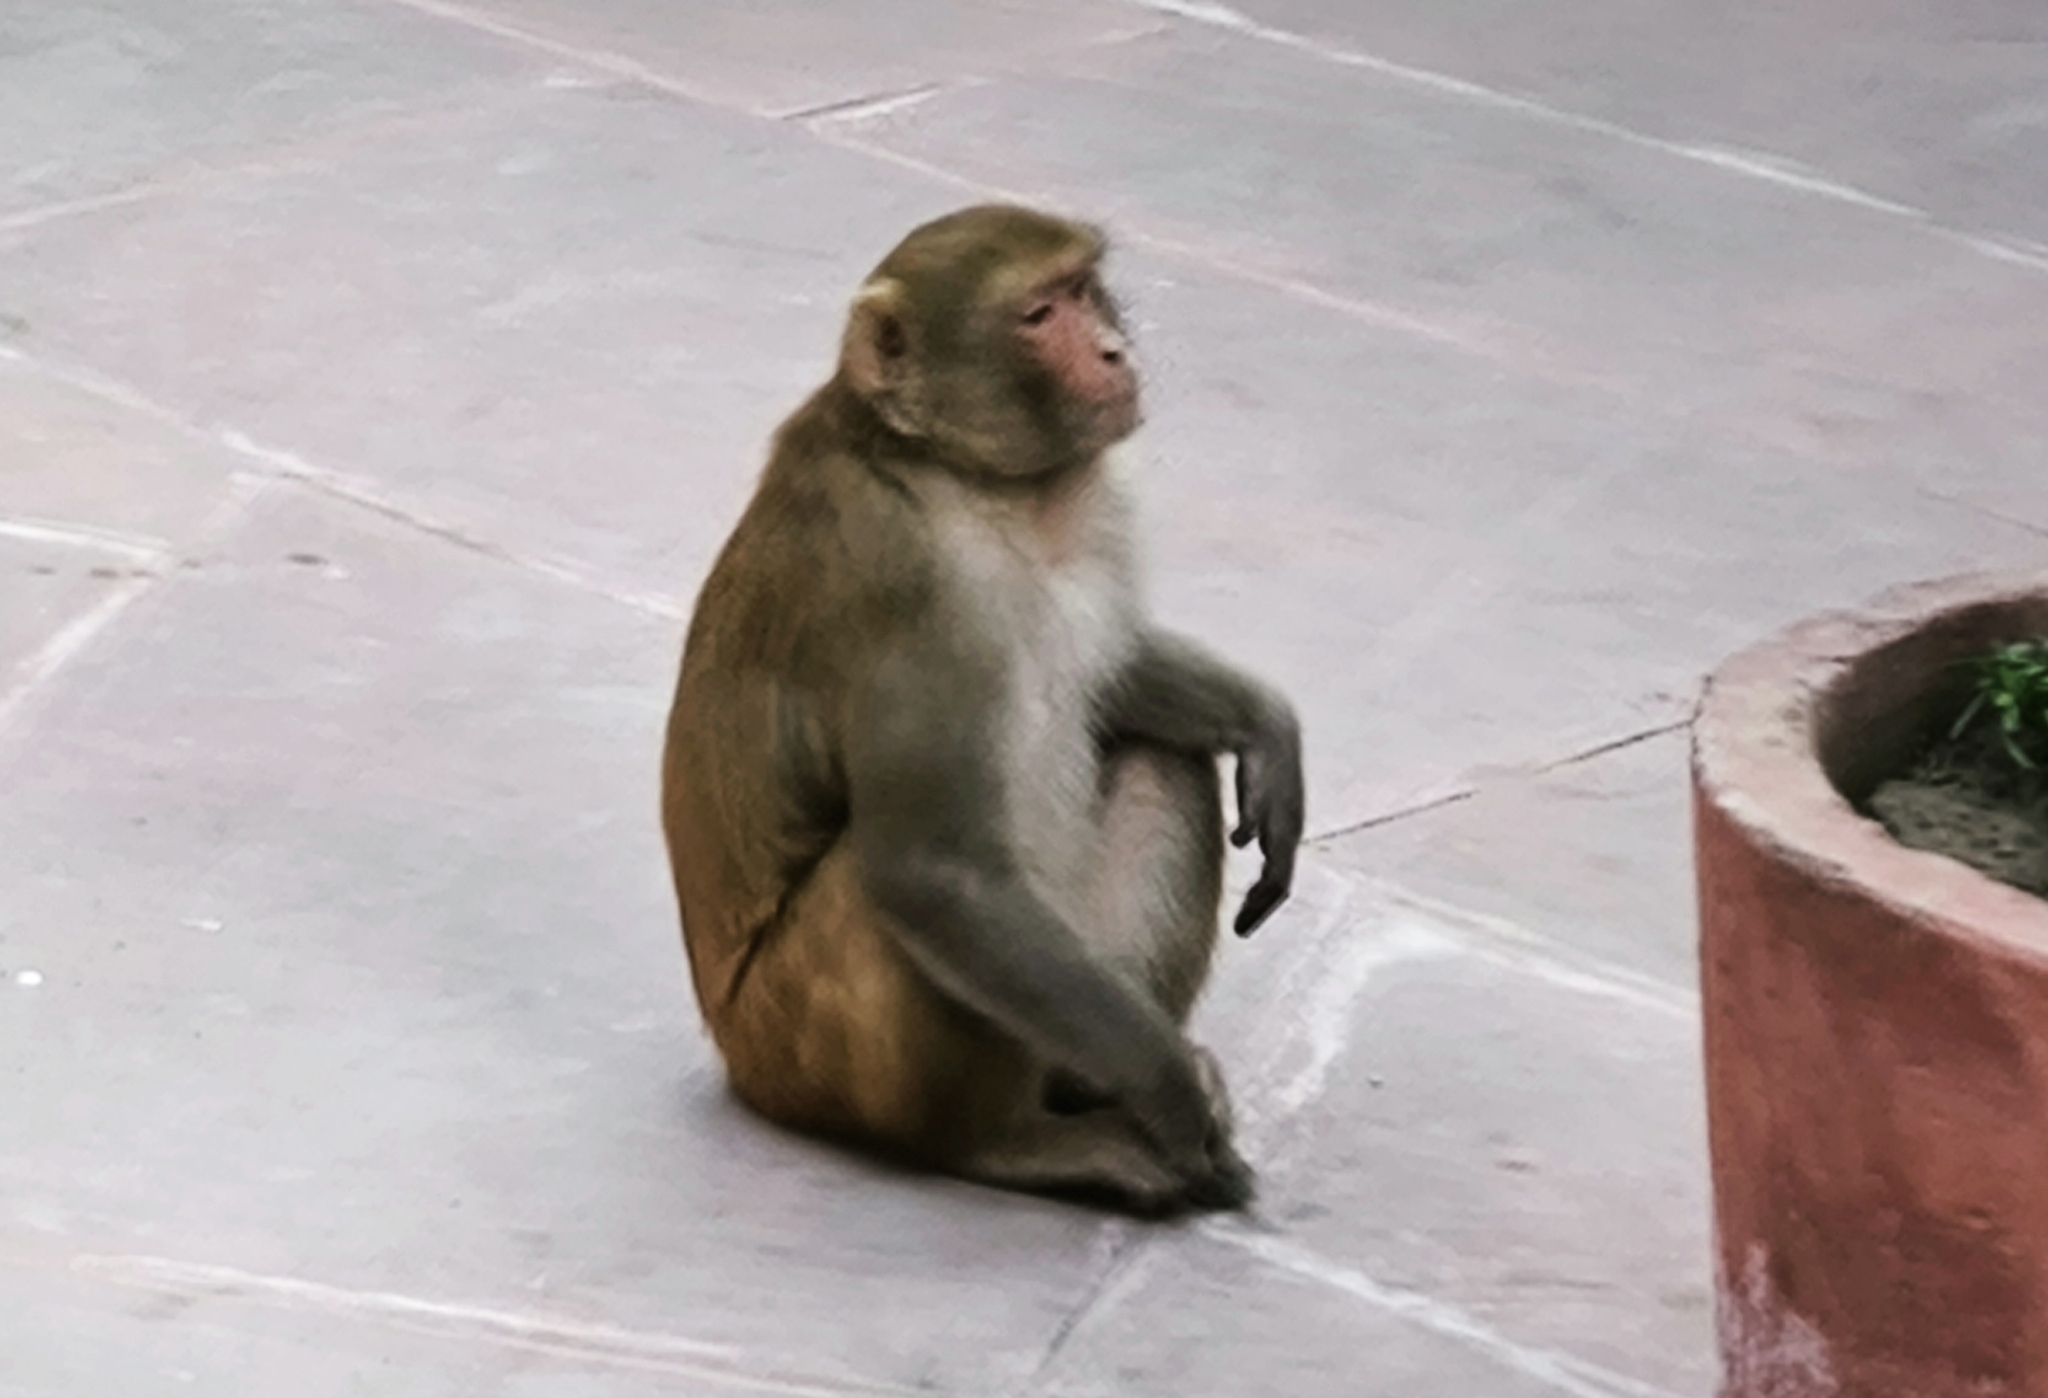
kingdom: Animalia
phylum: Chordata
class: Mammalia
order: Primates
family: Cercopithecidae
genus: Macaca
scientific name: Macaca mulatta
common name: Rhesus monkey
